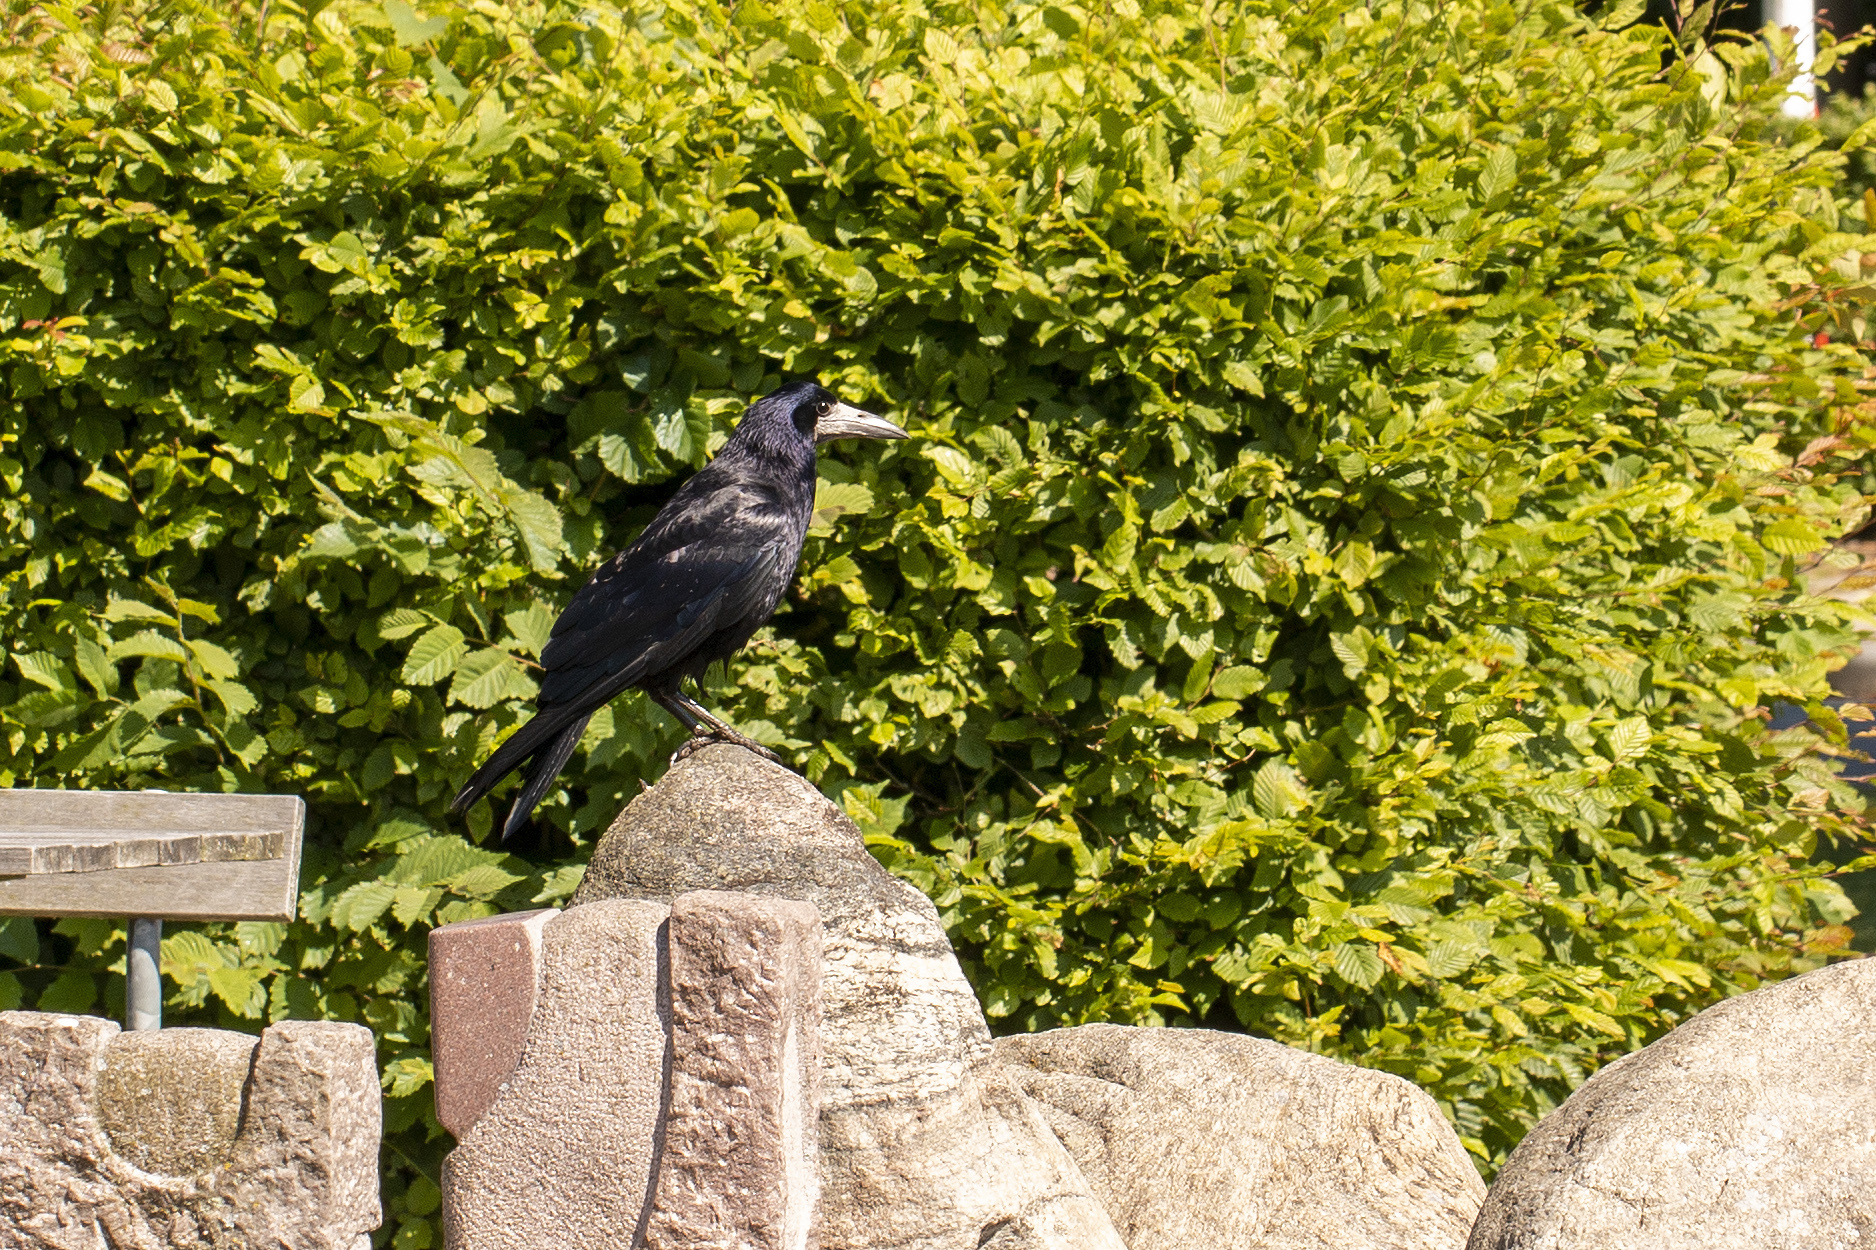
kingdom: Animalia
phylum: Chordata
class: Aves
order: Passeriformes
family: Corvidae
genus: Corvus
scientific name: Corvus frugilegus
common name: Rook
